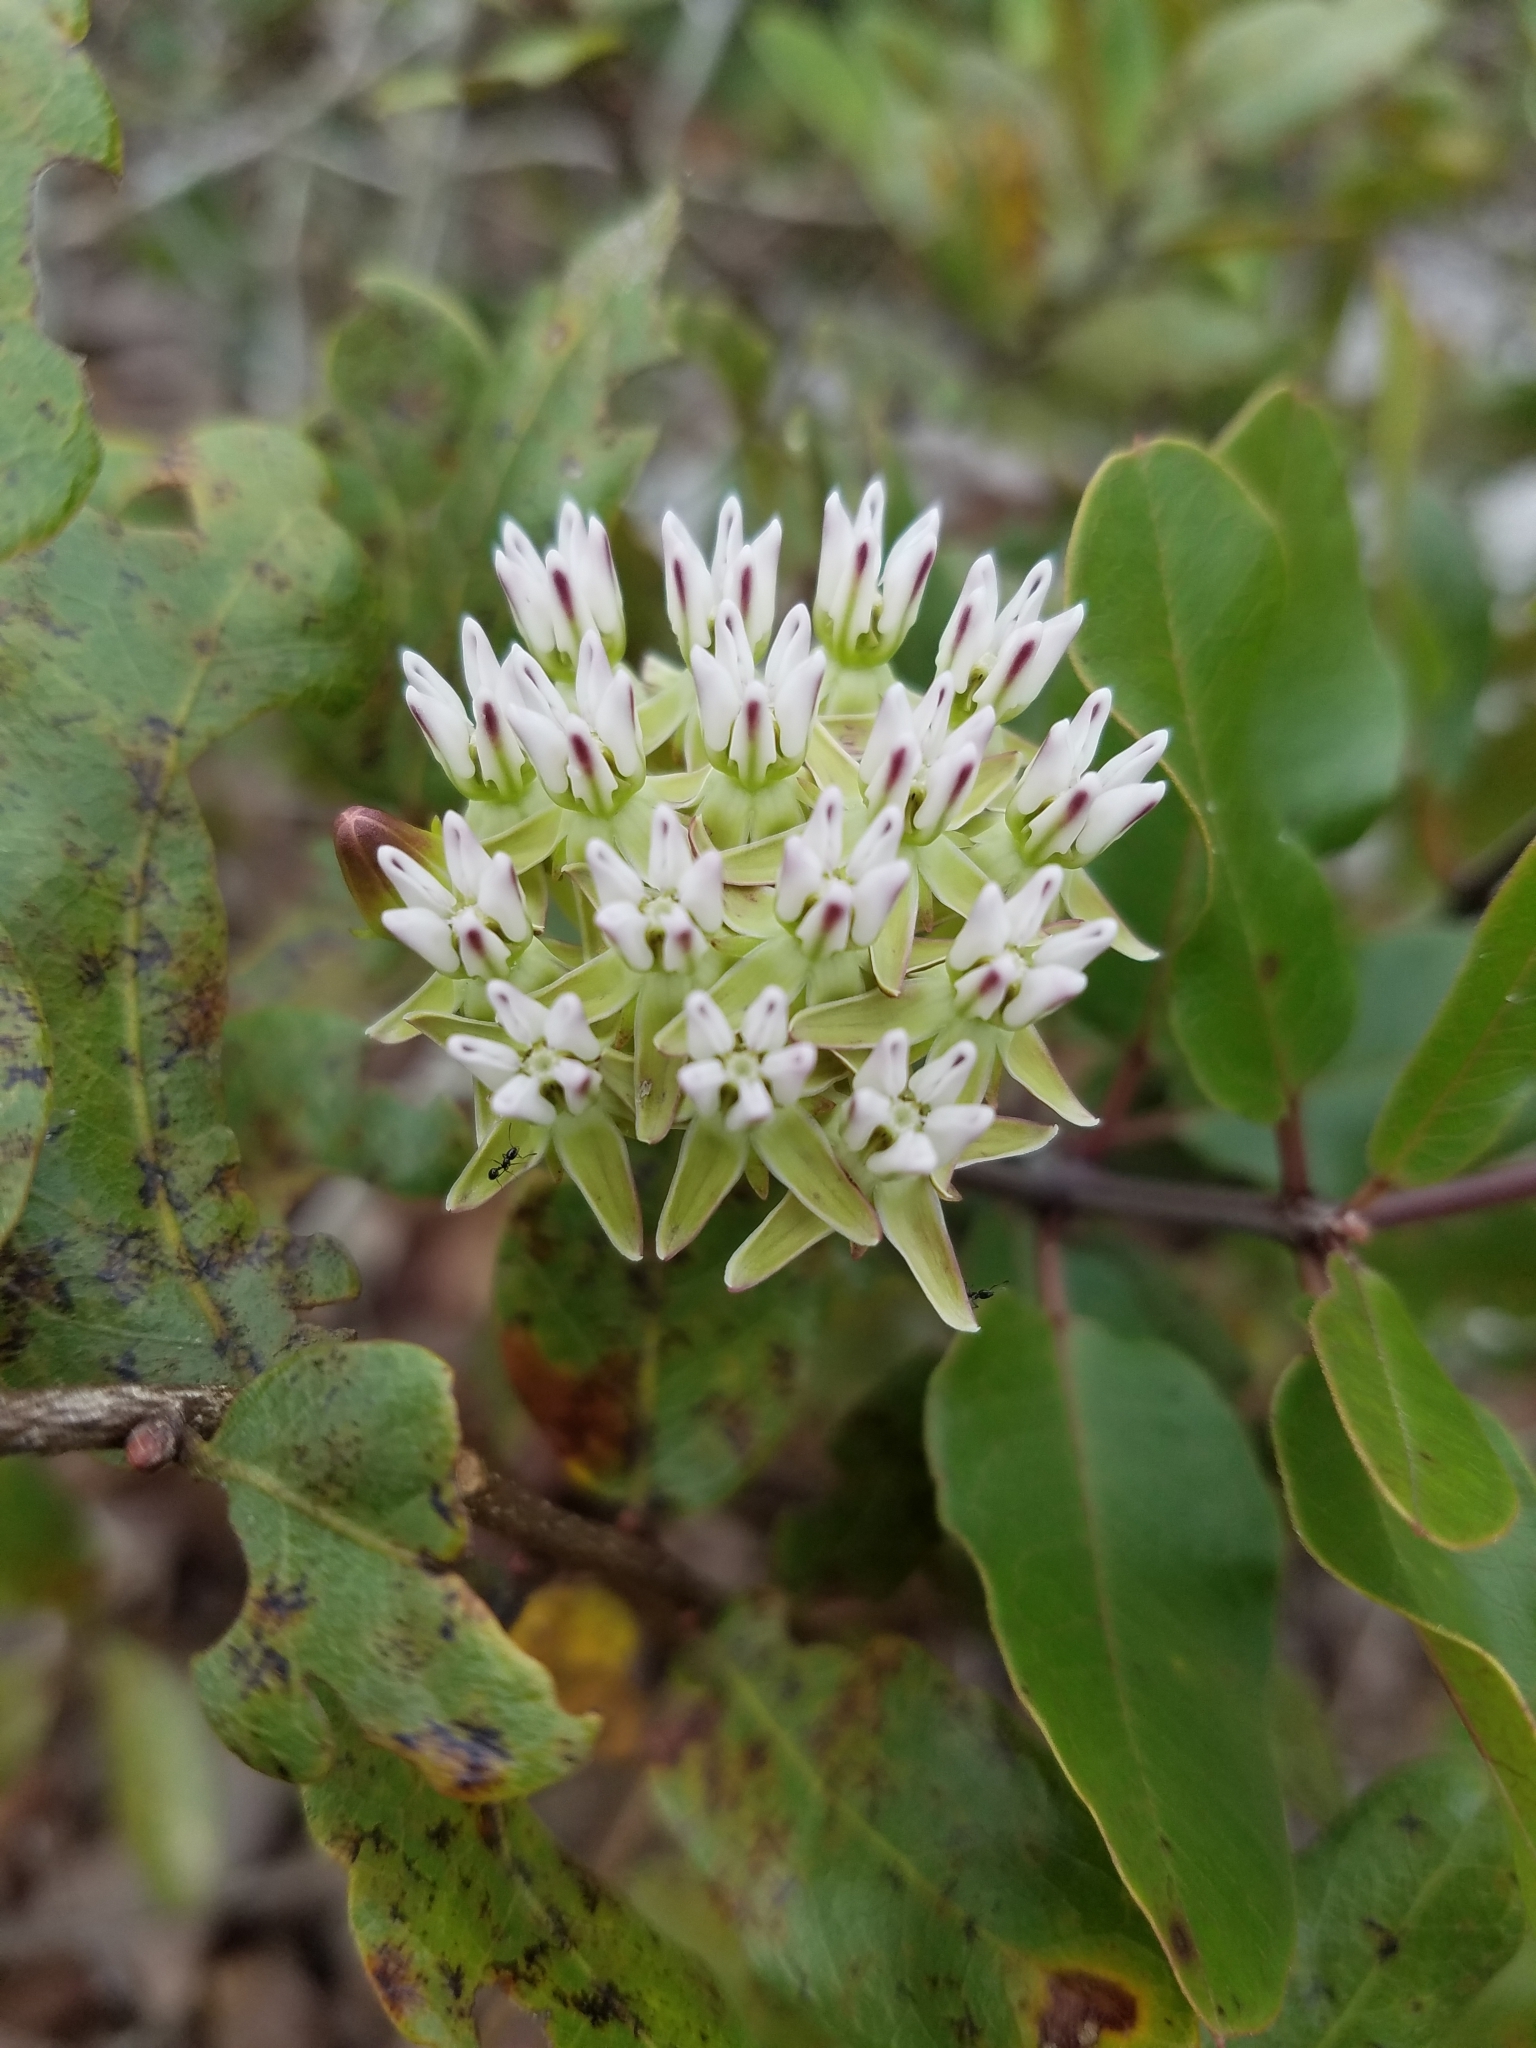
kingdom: Plantae
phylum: Tracheophyta
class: Magnoliopsida
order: Gentianales
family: Apocynaceae
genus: Asclepias
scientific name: Asclepias curtissii
